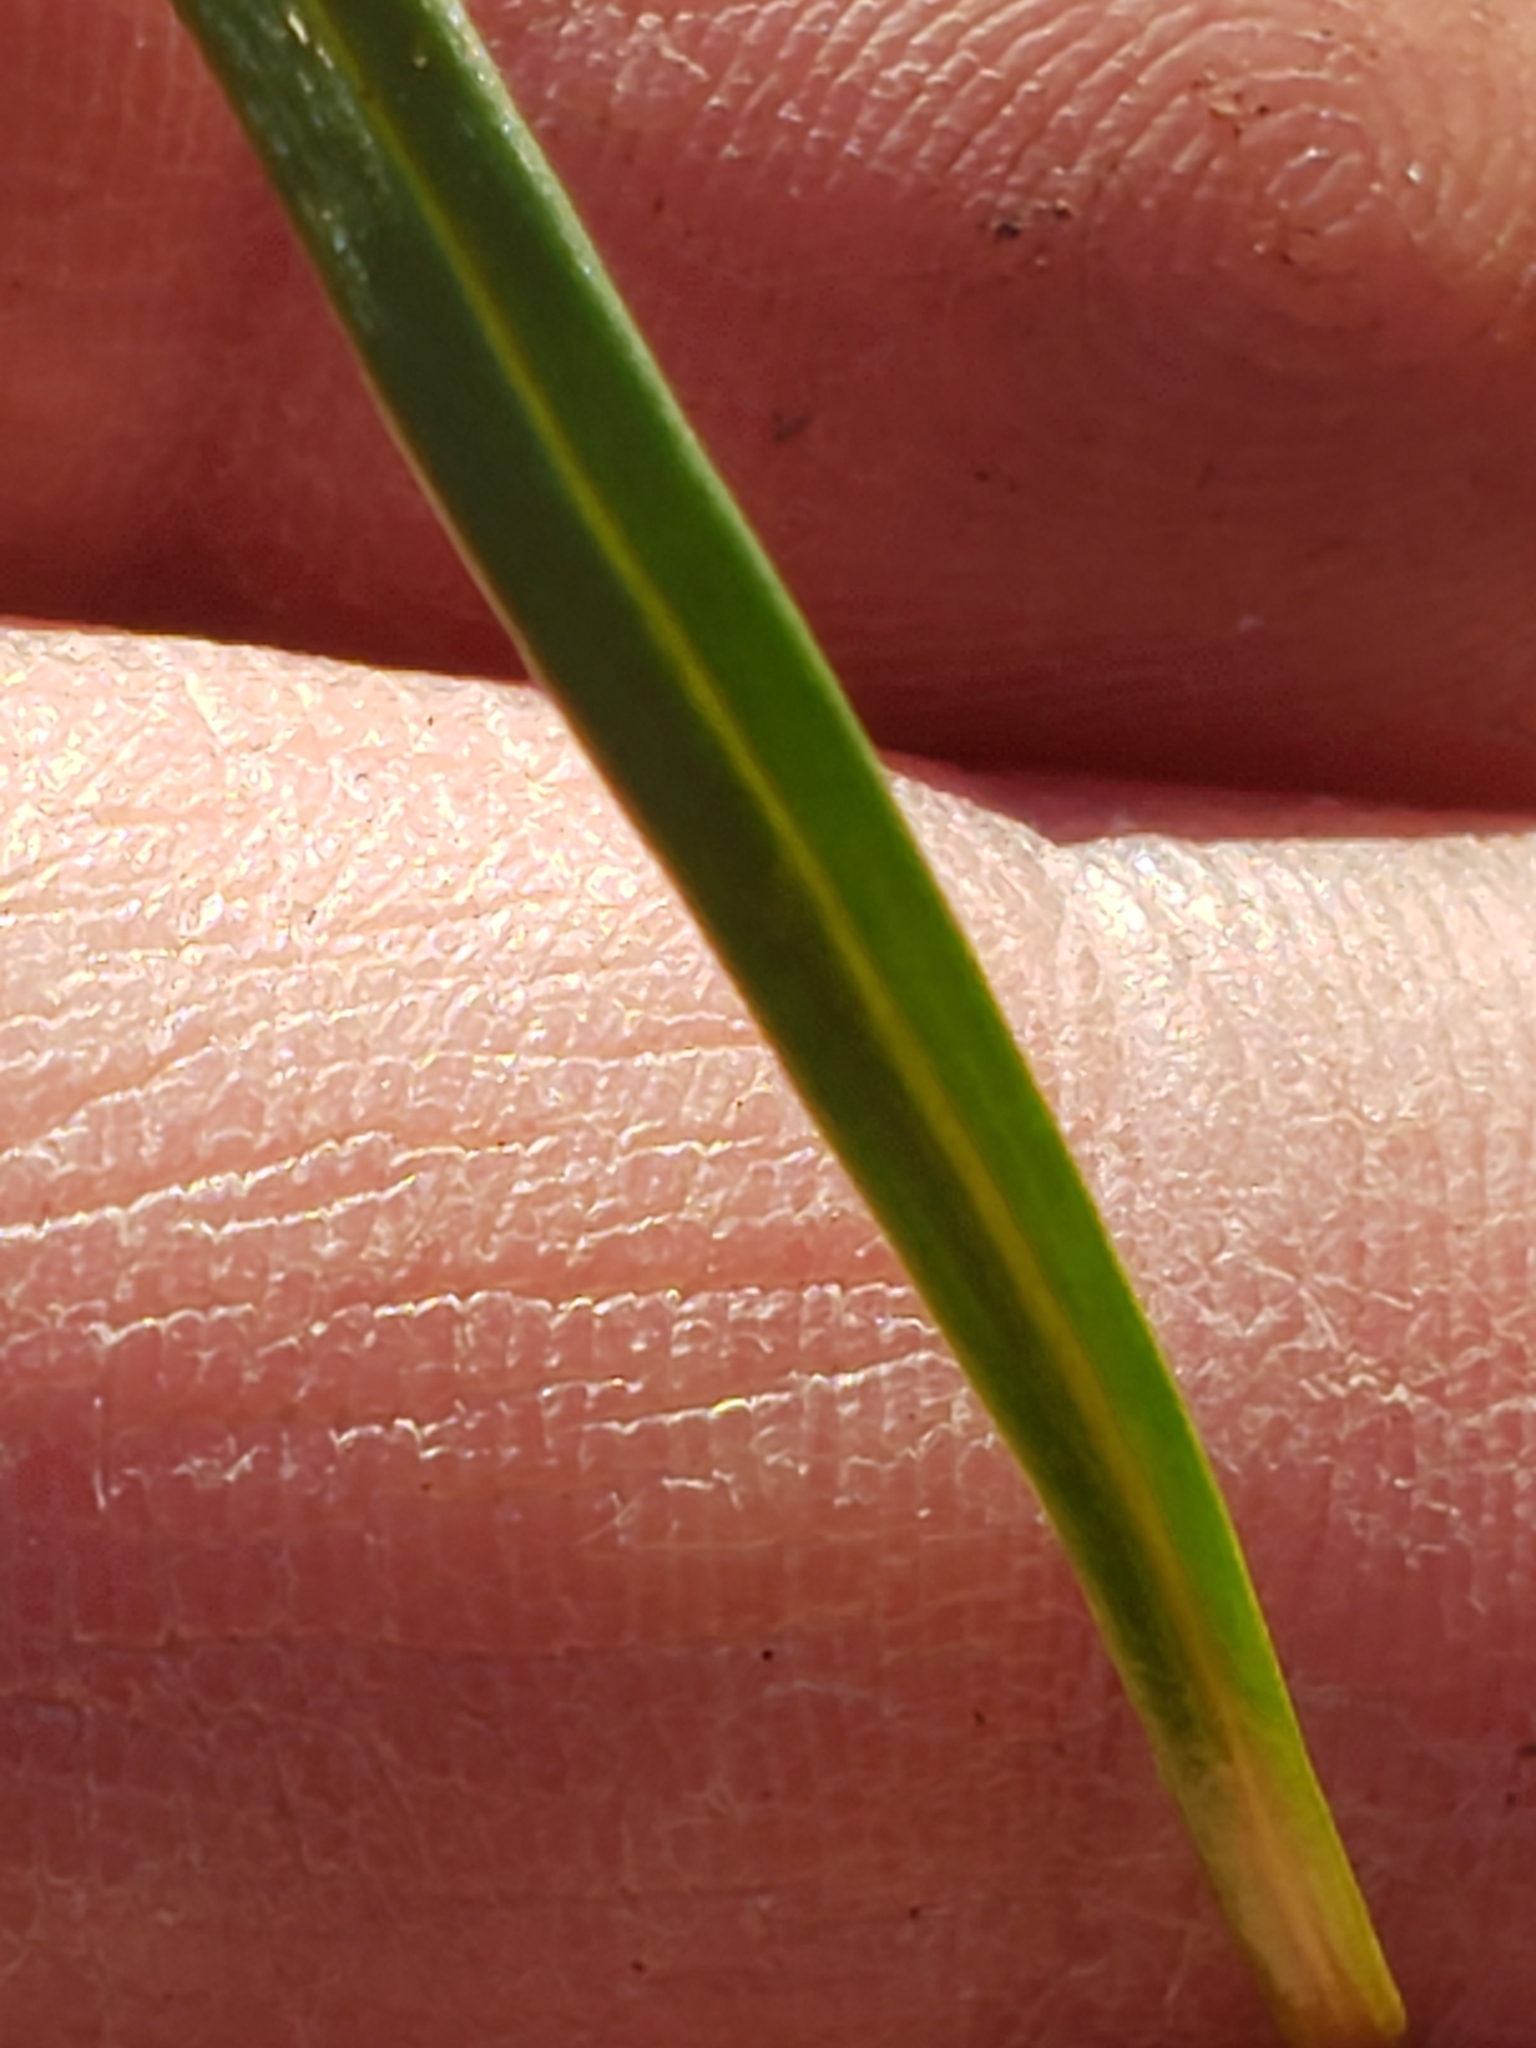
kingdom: Plantae
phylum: Tracheophyta
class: Magnoliopsida
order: Caryophyllales
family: Montiaceae
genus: Claytonia
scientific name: Claytonia virginica
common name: Virginia springbeauty
